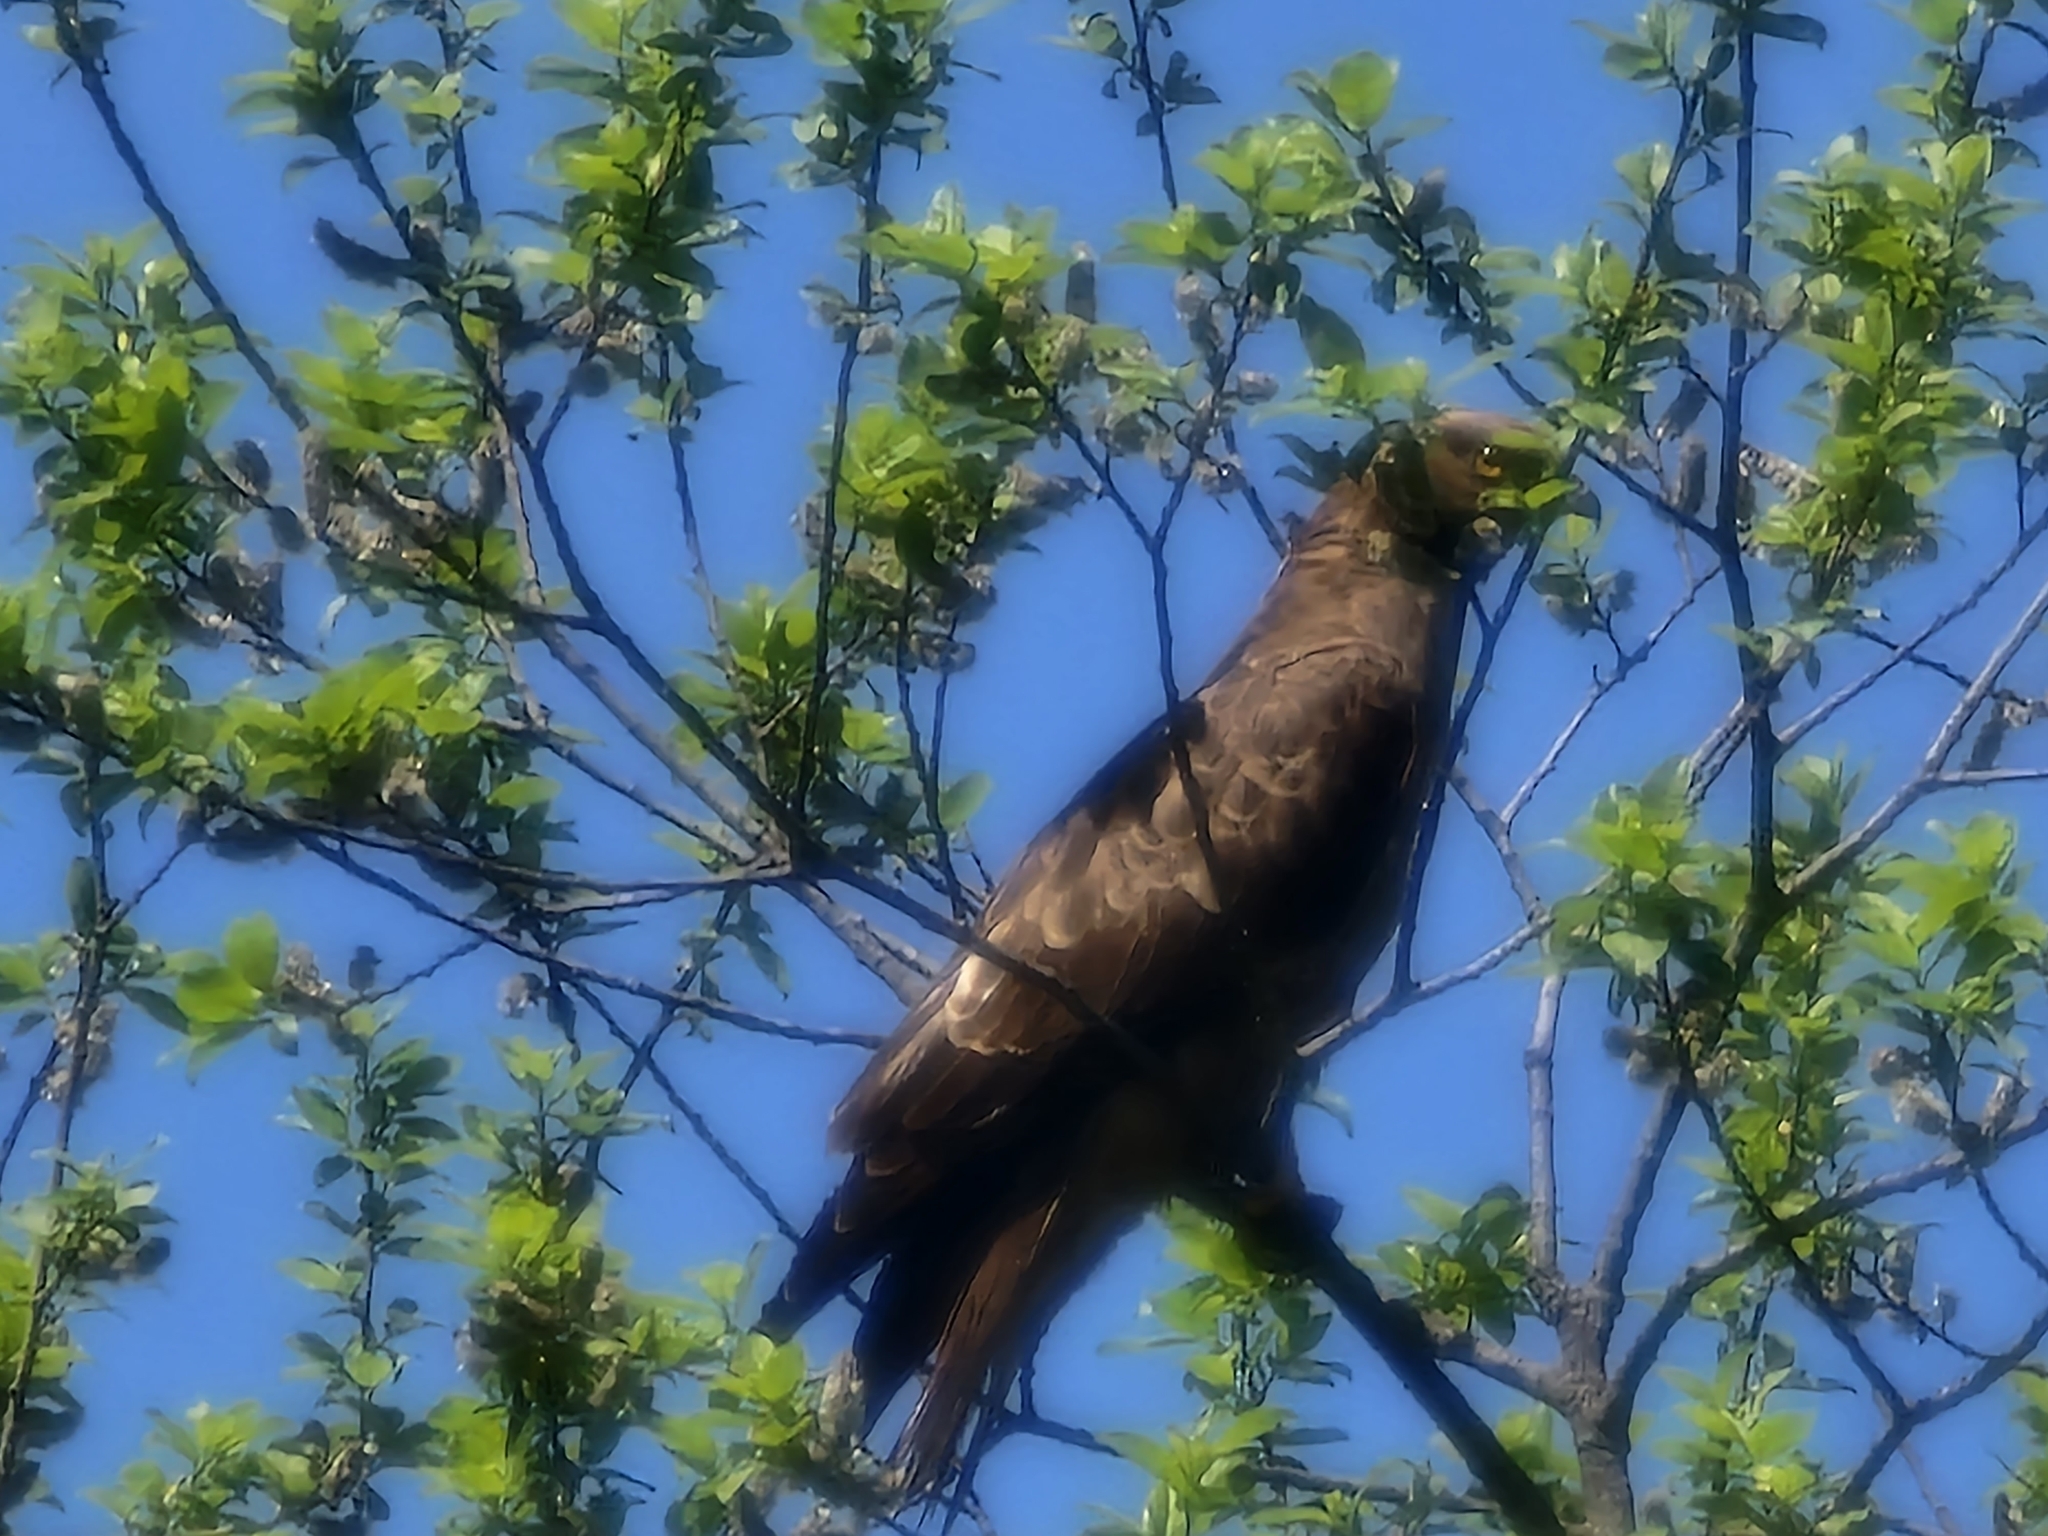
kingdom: Animalia
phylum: Chordata
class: Aves
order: Accipitriformes
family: Accipitridae
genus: Pernis
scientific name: Pernis apivorus
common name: European honey buzzard
